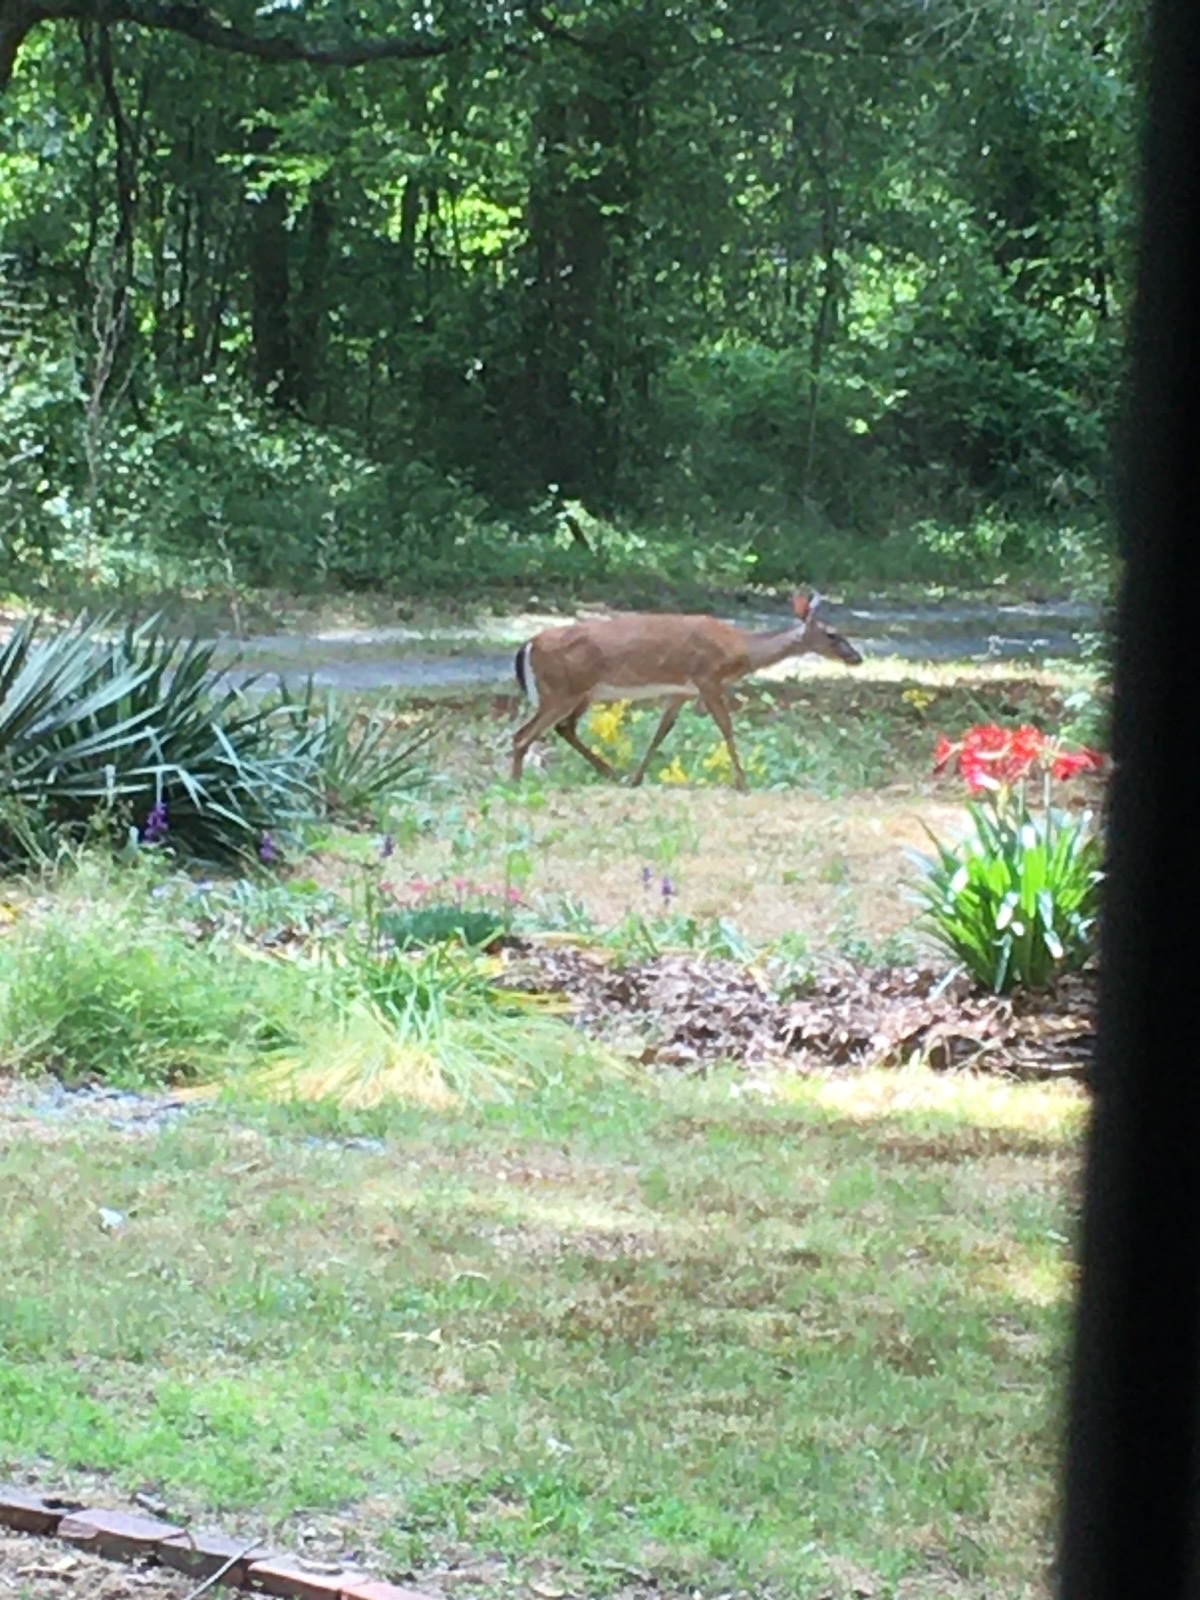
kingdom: Animalia
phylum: Chordata
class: Mammalia
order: Artiodactyla
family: Cervidae
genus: Odocoileus
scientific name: Odocoileus virginianus
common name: White-tailed deer
